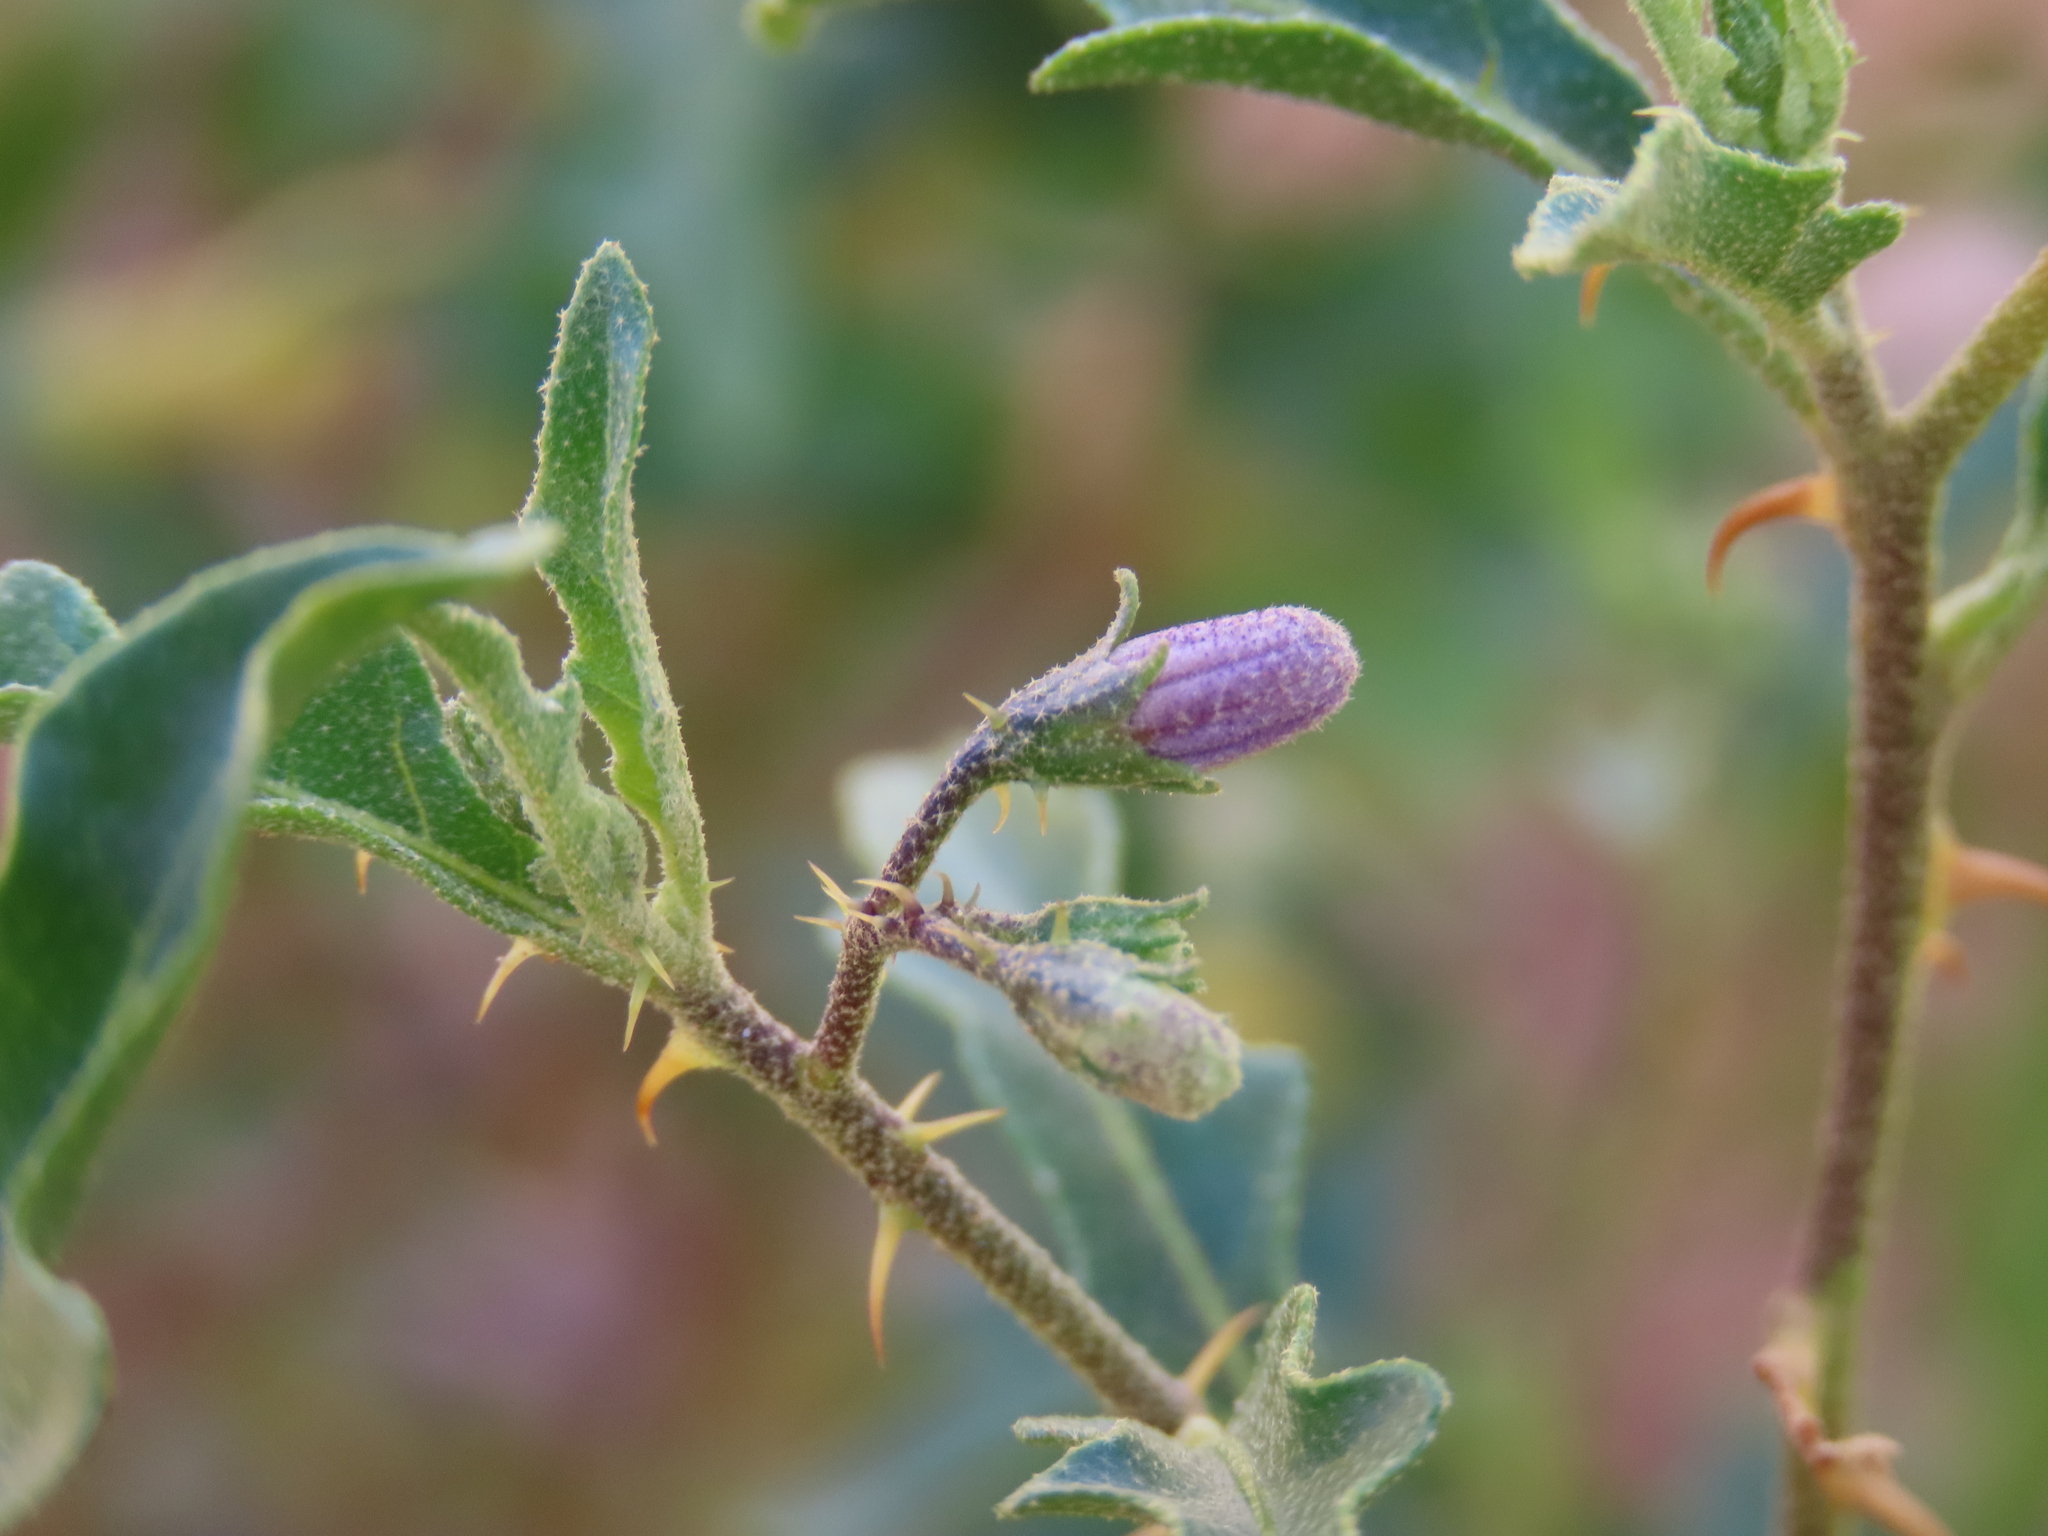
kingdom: Plantae
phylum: Tracheophyta
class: Magnoliopsida
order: Solanales
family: Solanaceae
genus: Solanum
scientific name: Solanum capense
